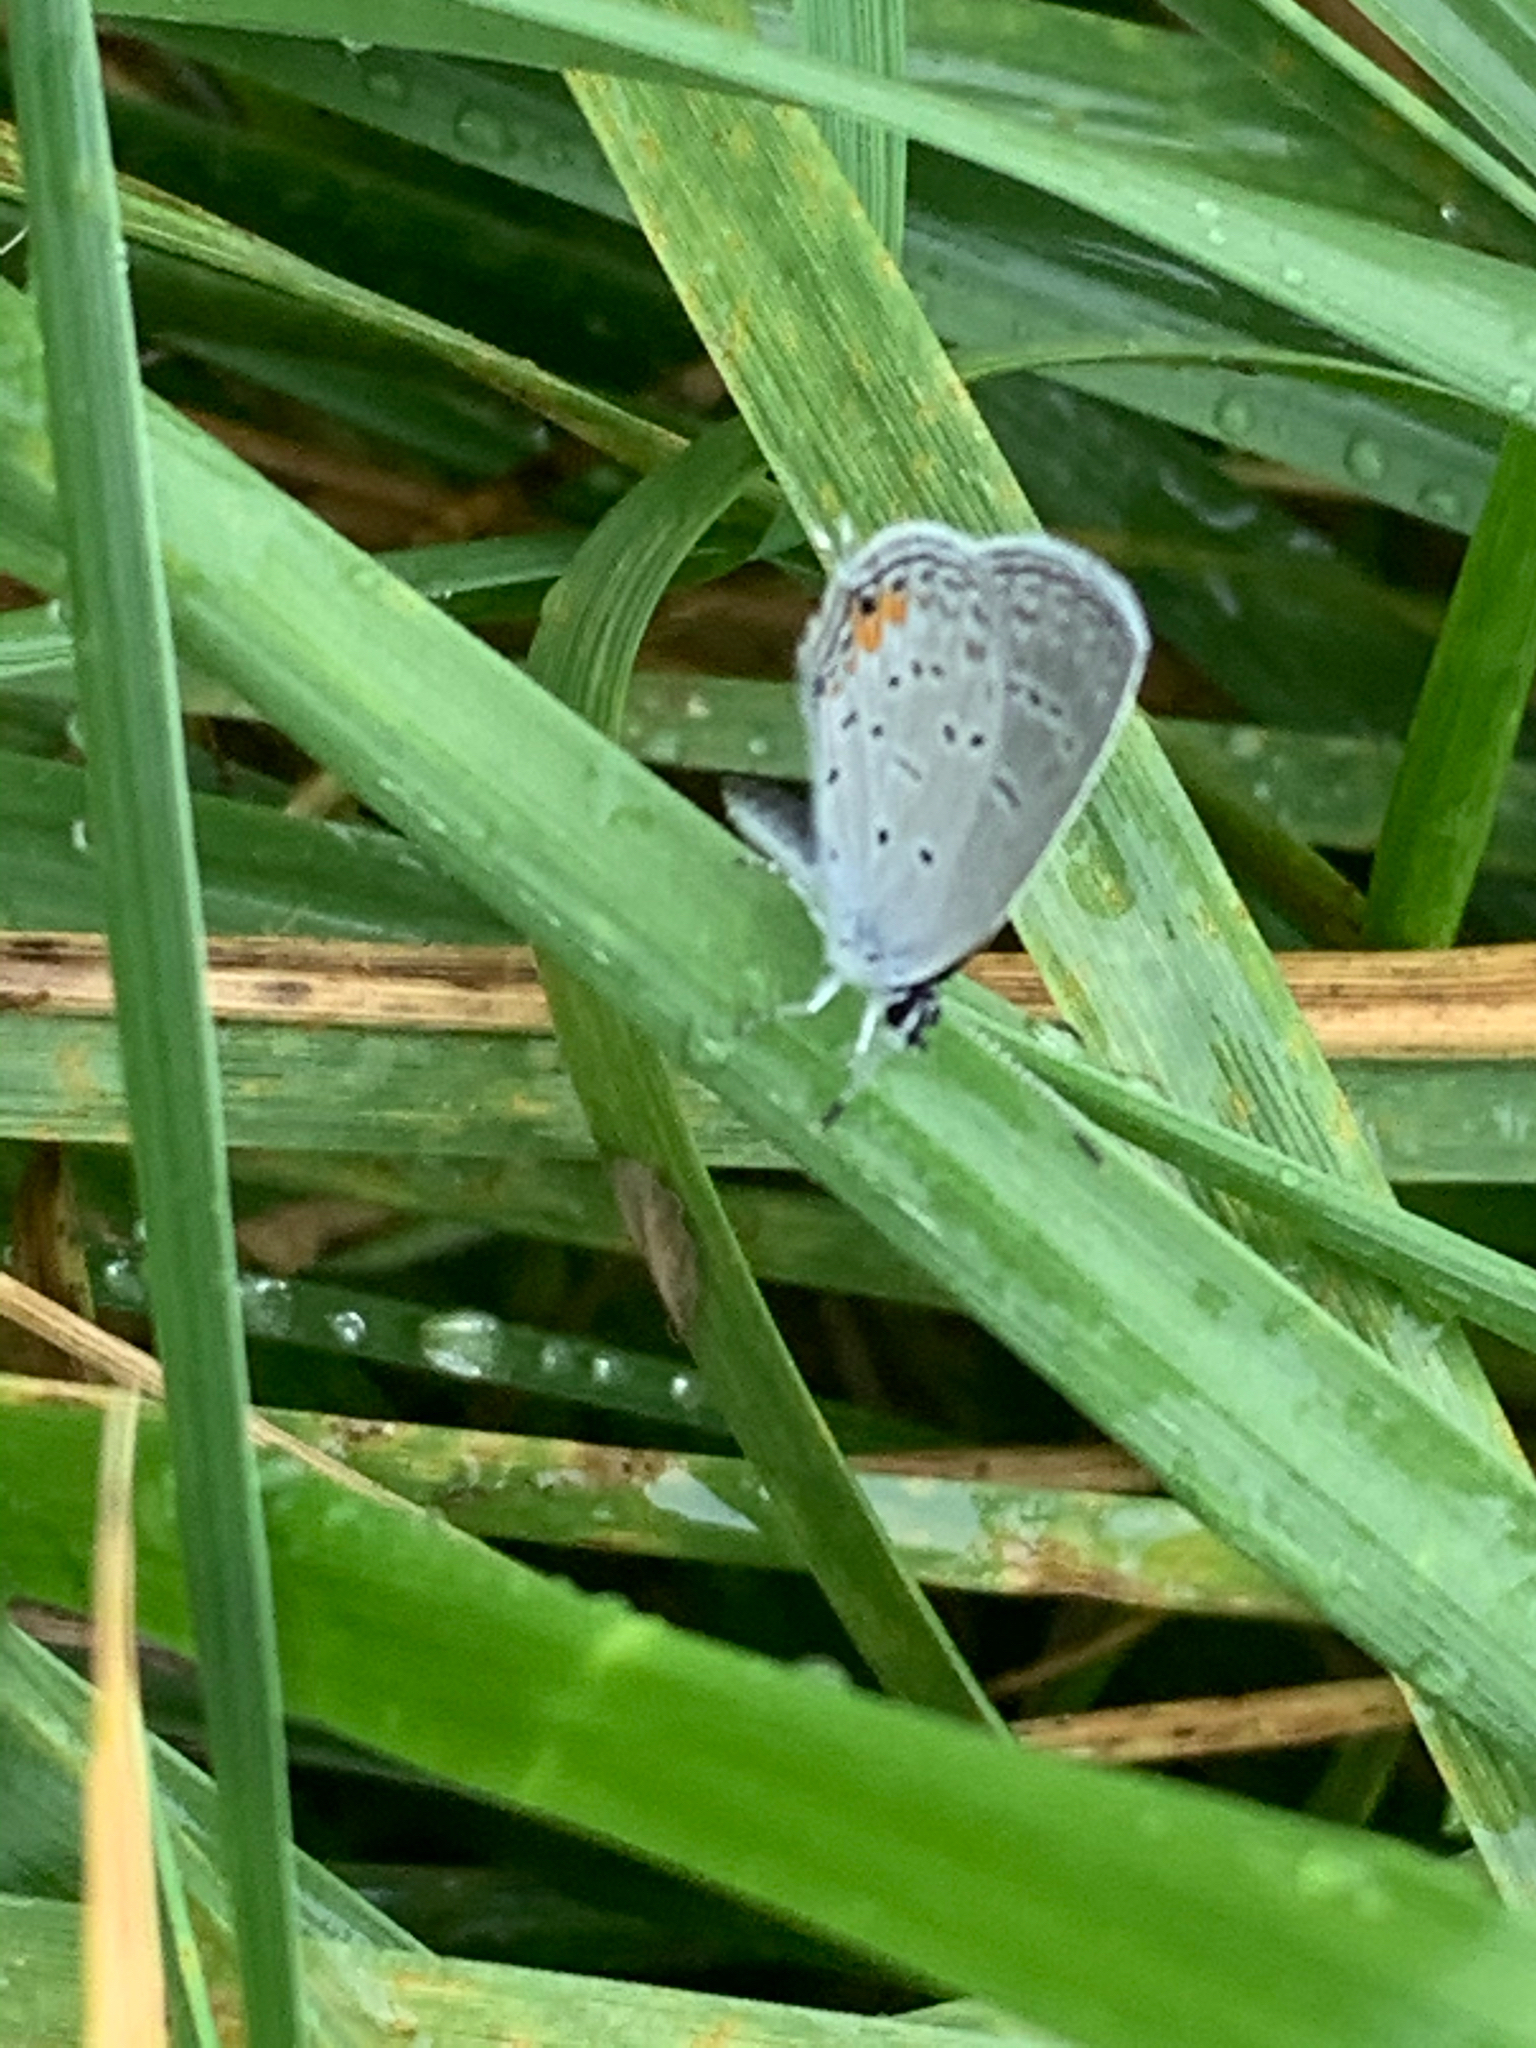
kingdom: Animalia
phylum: Arthropoda
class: Insecta
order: Lepidoptera
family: Lycaenidae
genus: Elkalyce
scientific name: Elkalyce comyntas
